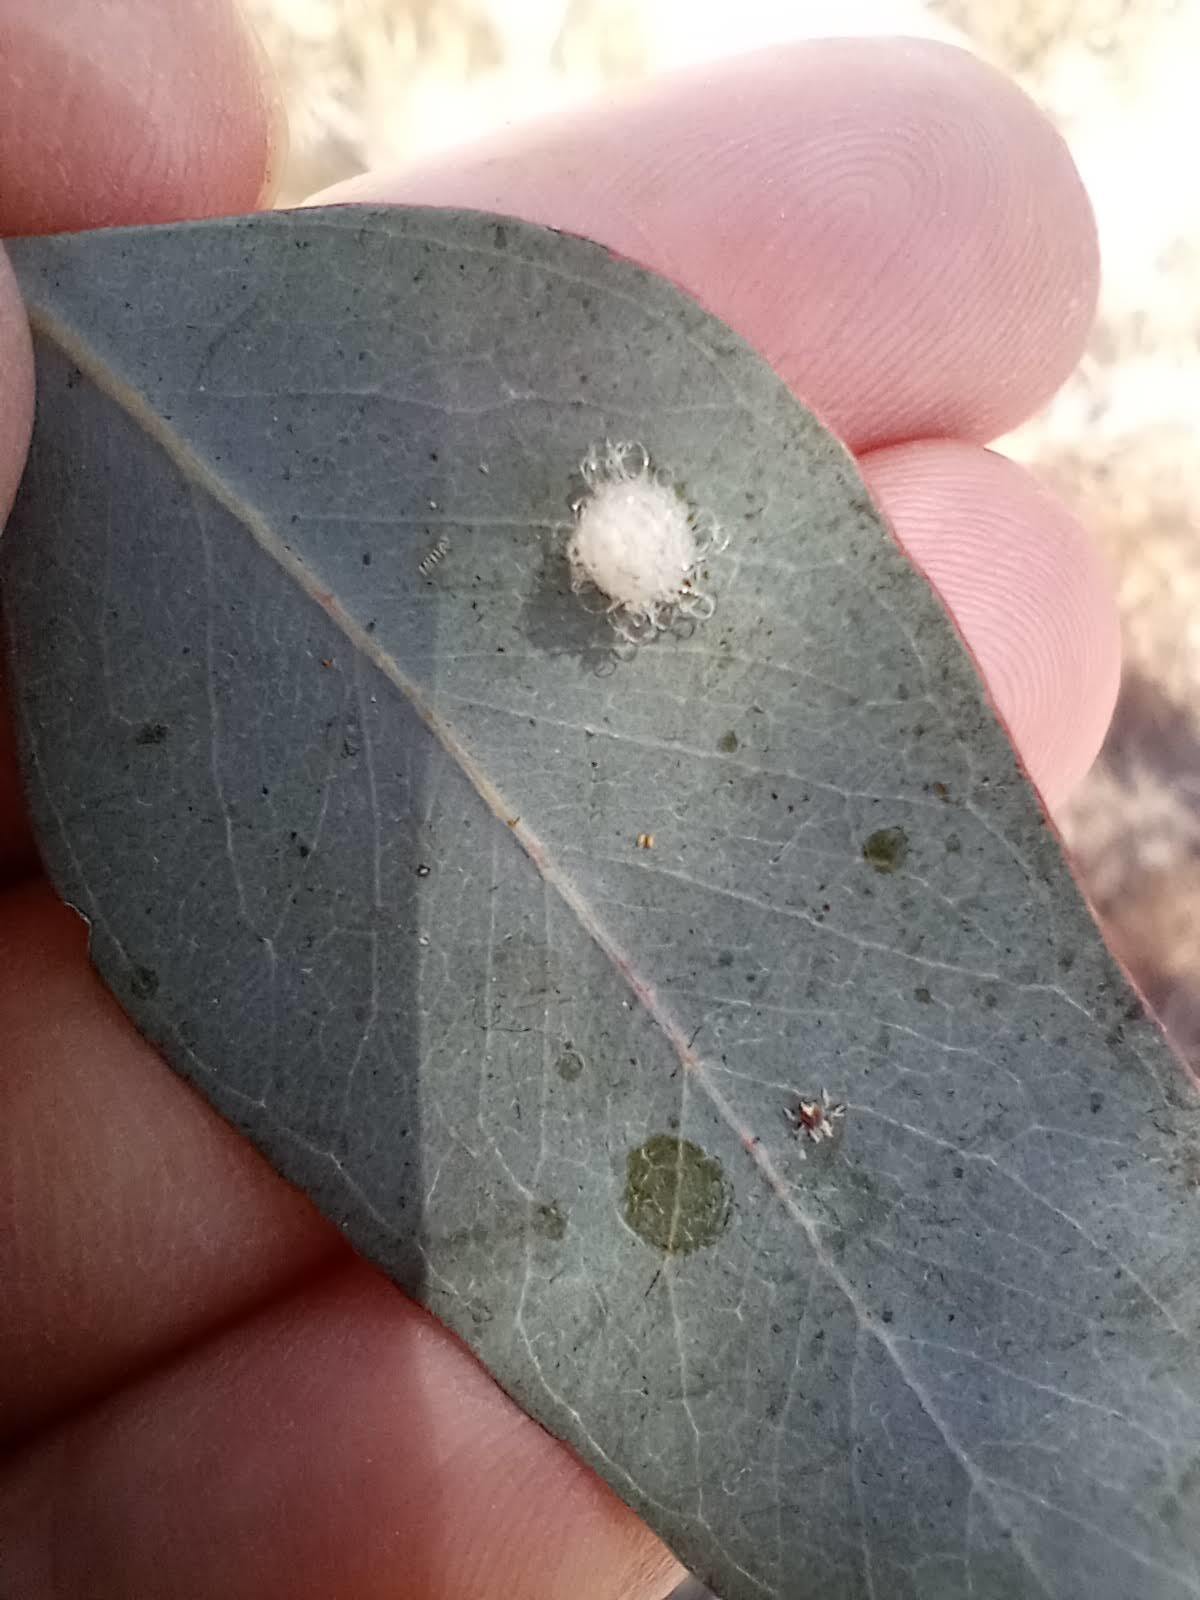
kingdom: Animalia
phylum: Arthropoda
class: Insecta
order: Hemiptera
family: Aphalaridae
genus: Glycaspis
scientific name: Glycaspis brimblecombei
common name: Red gum lerp psyllid
